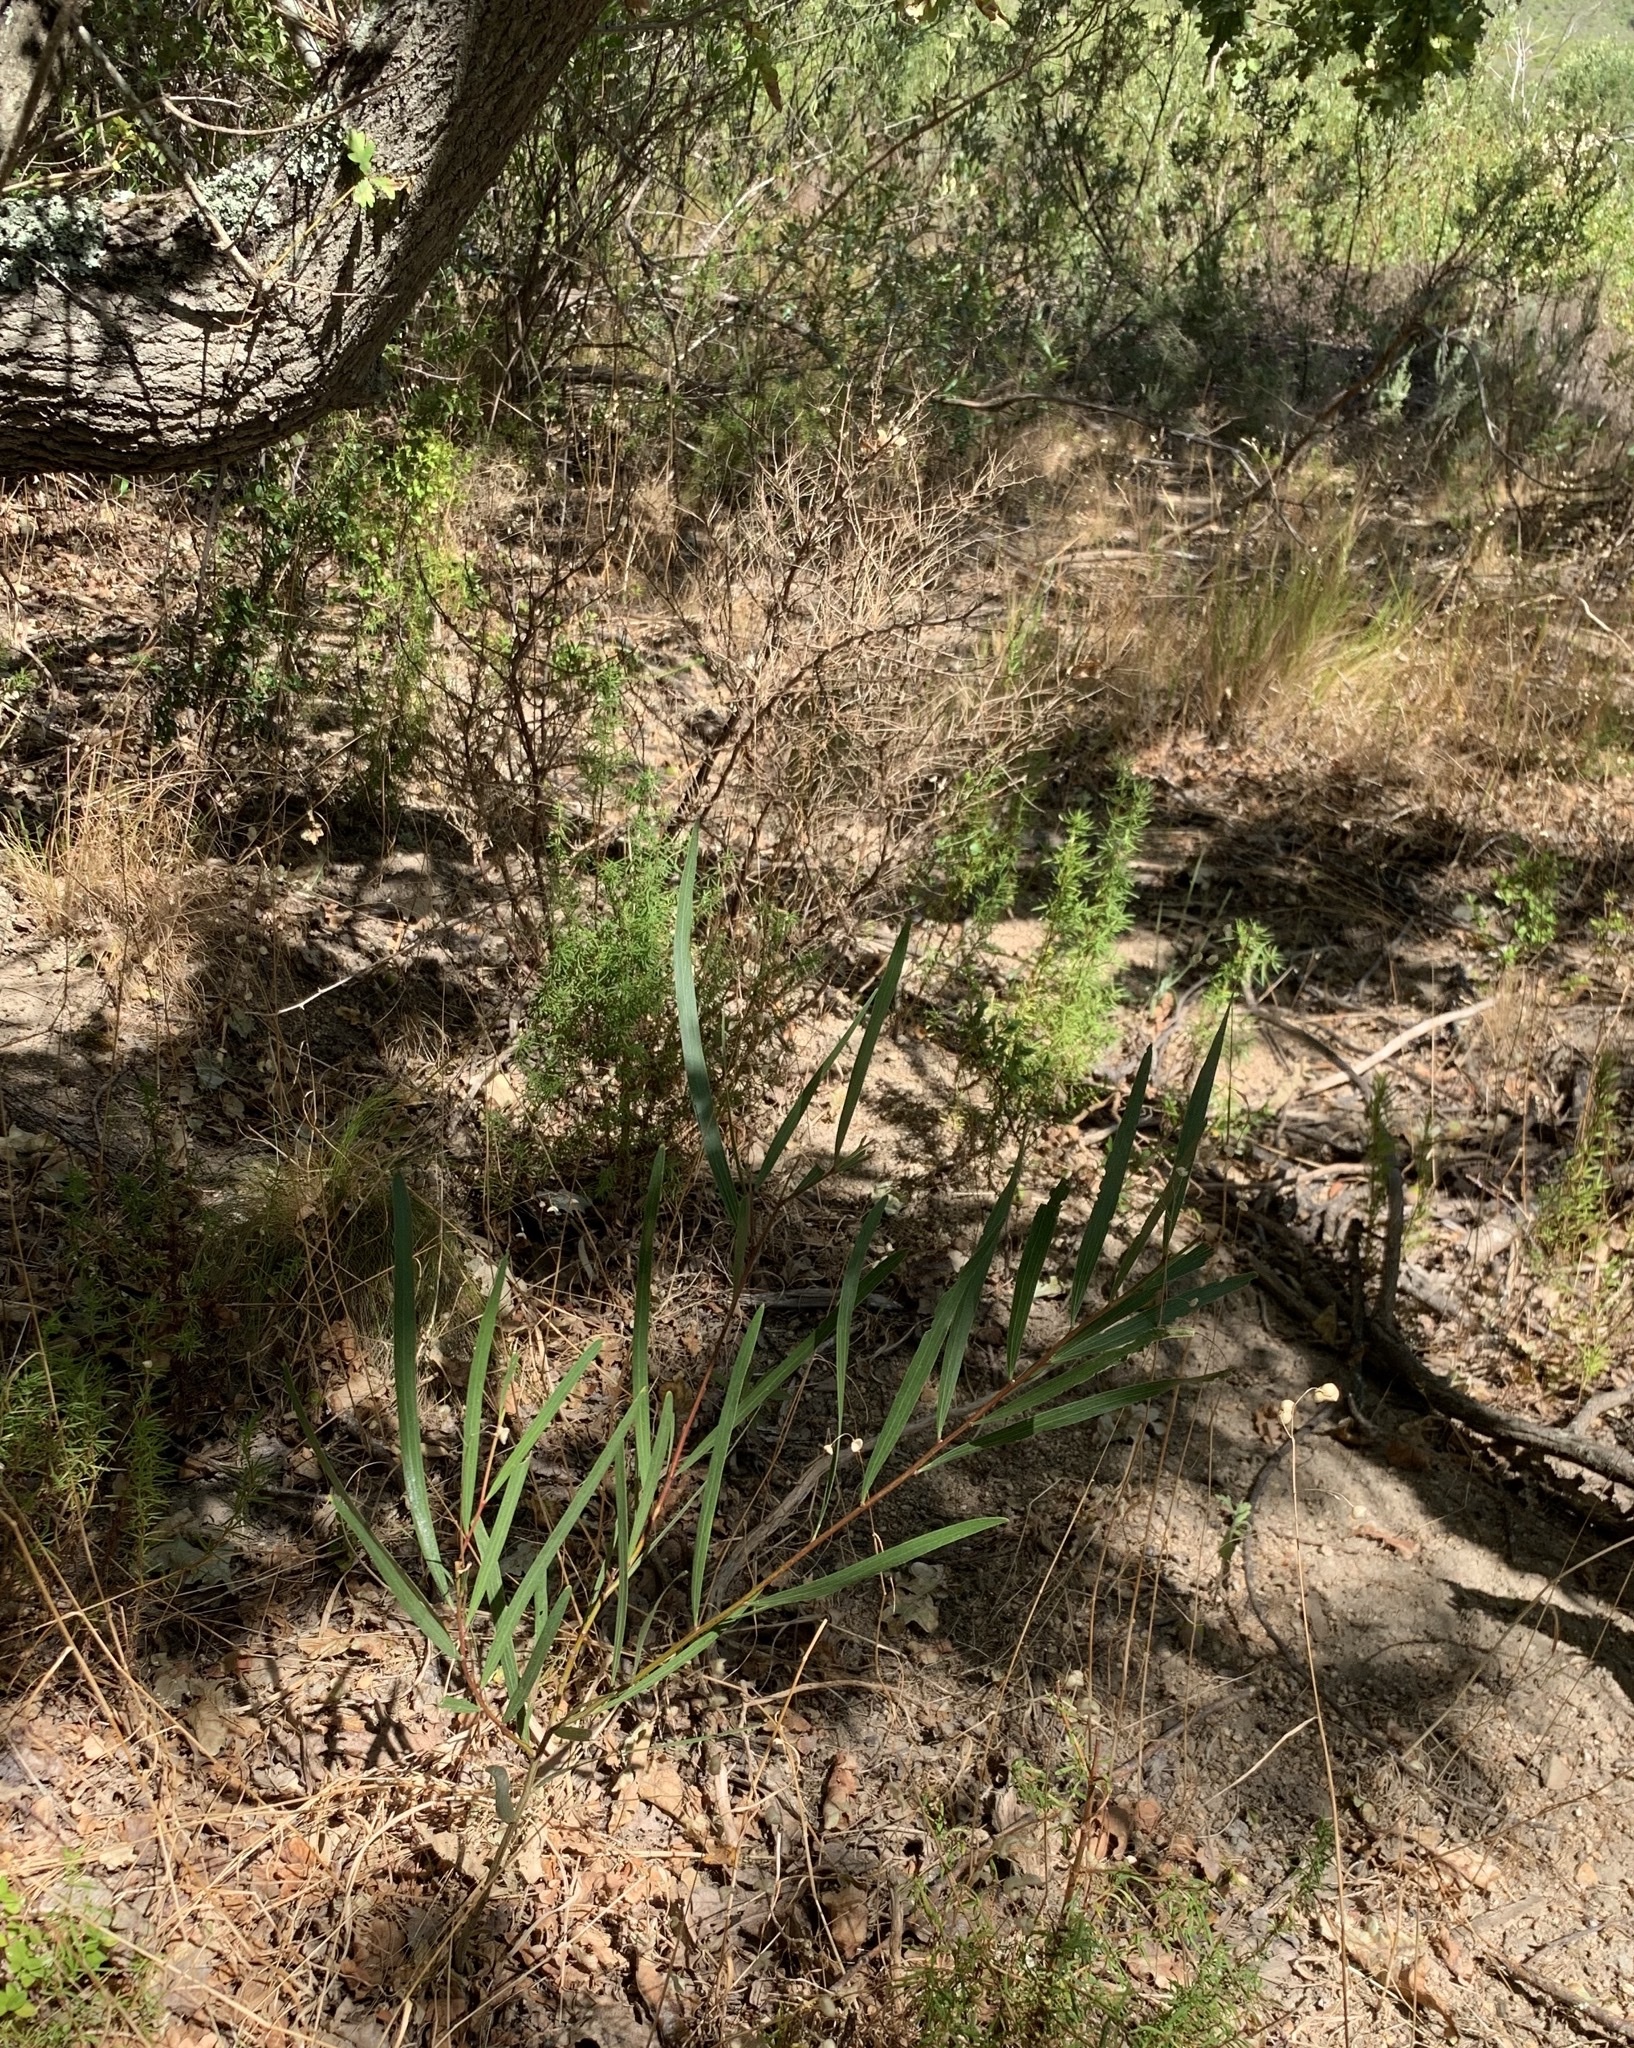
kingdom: Plantae
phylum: Tracheophyta
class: Magnoliopsida
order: Fabales
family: Fabaceae
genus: Acacia
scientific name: Acacia longifolia
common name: Sydney golden wattle
